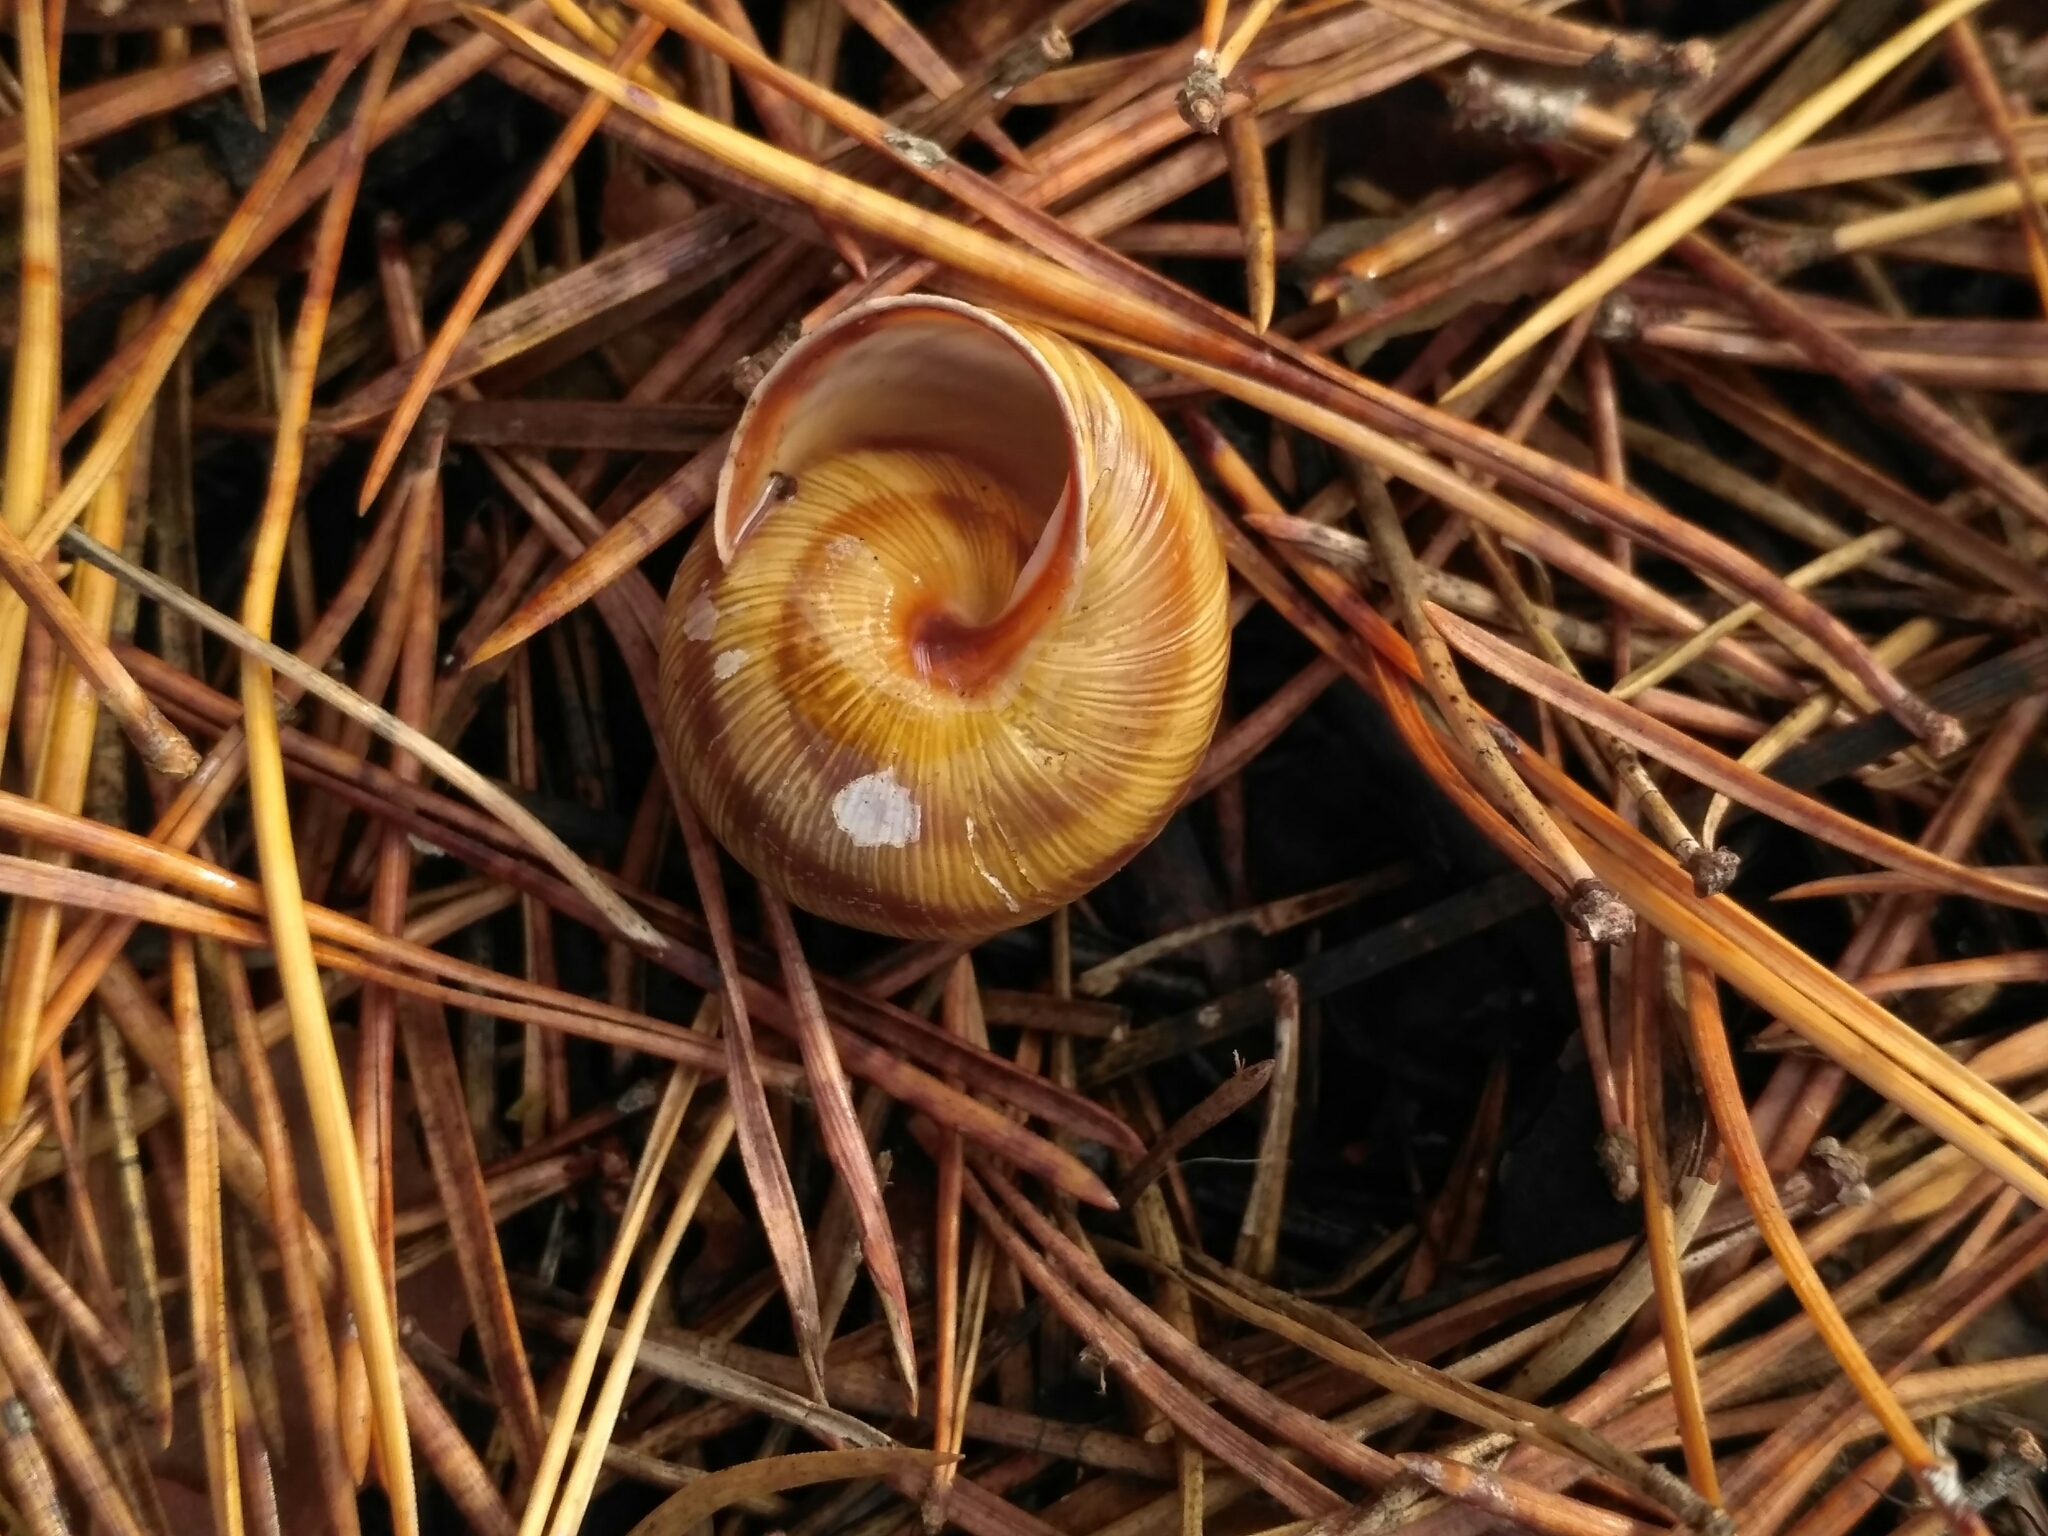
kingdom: Animalia
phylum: Mollusca
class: Gastropoda
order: Stylommatophora
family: Helicidae
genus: Caucasotachea
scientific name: Caucasotachea vindobonensis
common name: European helicid land snail
